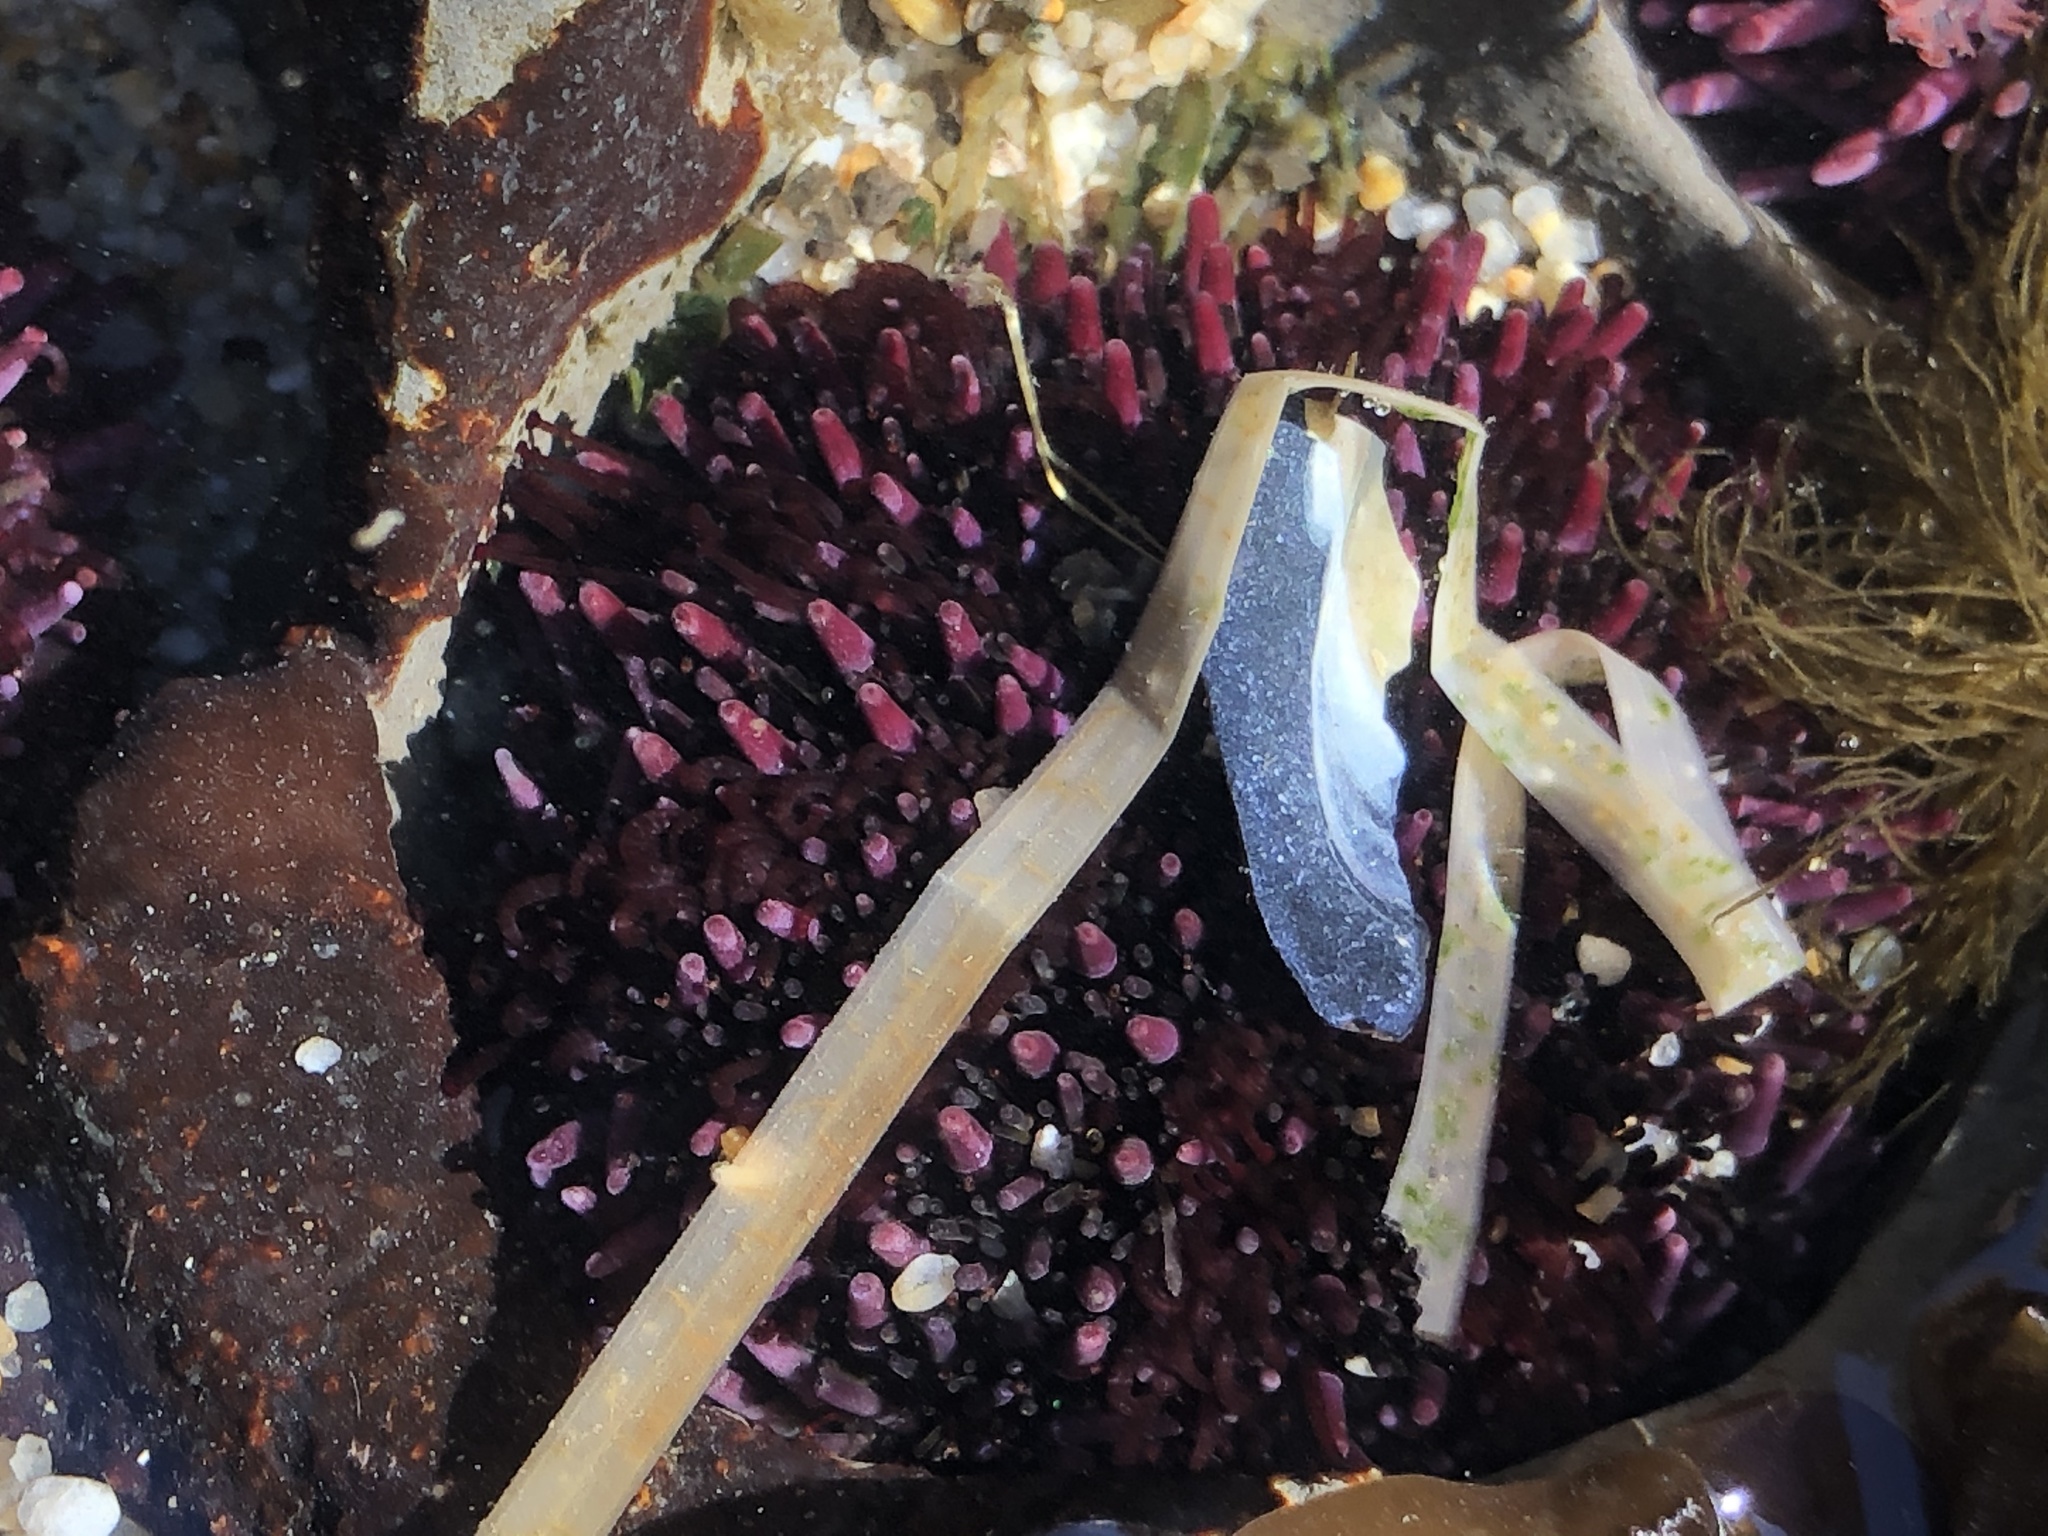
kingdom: Animalia
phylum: Echinodermata
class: Echinoidea
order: Camarodonta
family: Strongylocentrotidae
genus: Strongylocentrotus
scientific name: Strongylocentrotus purpuratus
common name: Purple sea urchin
